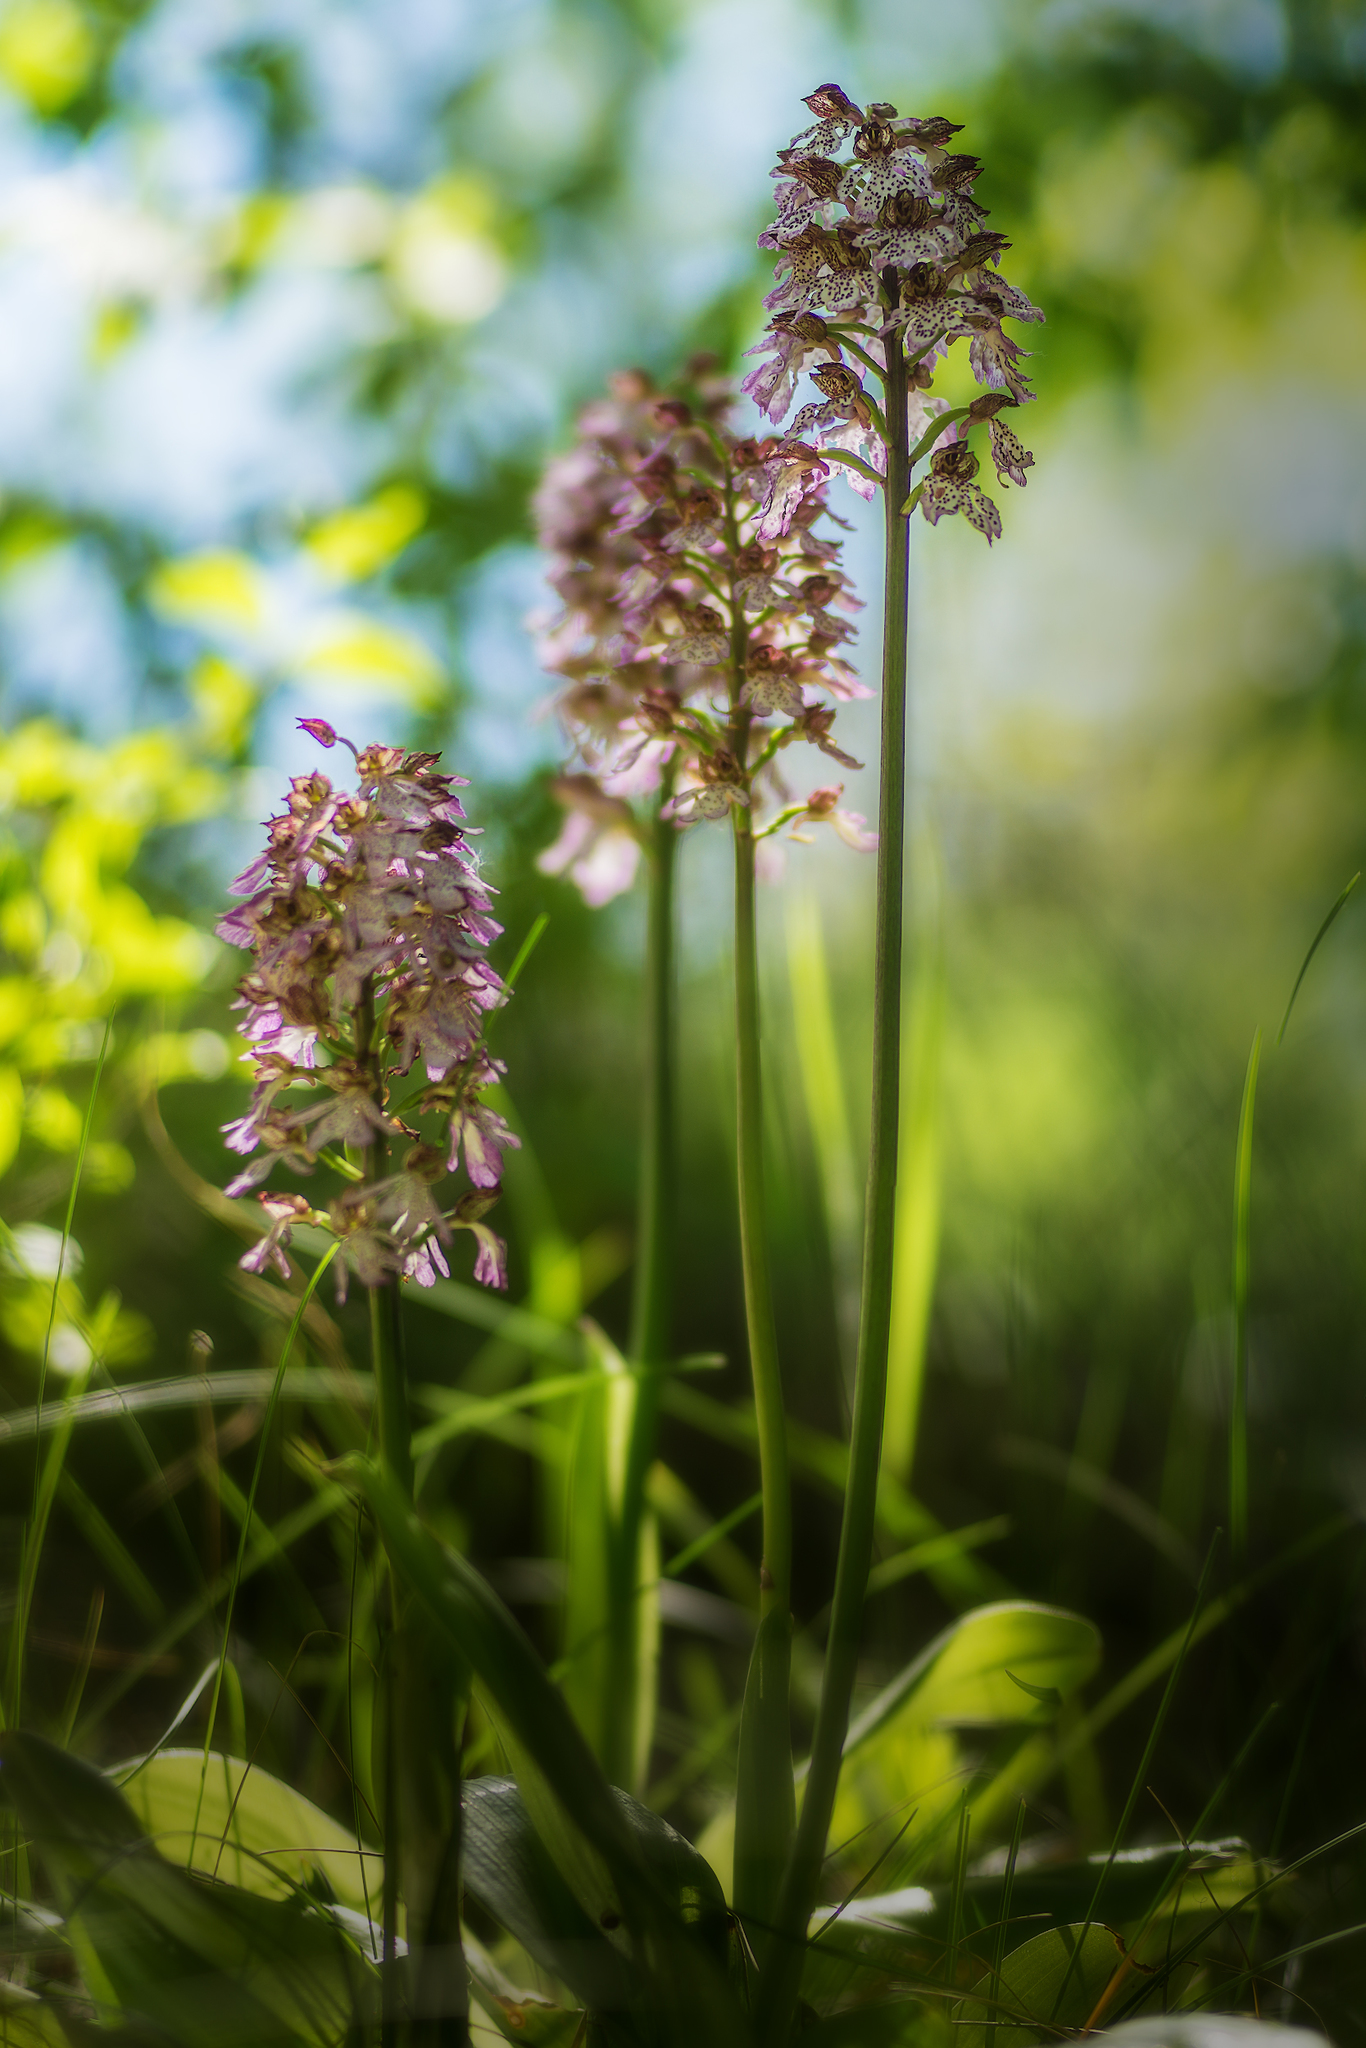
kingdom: Plantae
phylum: Tracheophyta
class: Liliopsida
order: Asparagales
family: Orchidaceae
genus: Orchis
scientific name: Orchis purpurea
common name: Lady orchid
